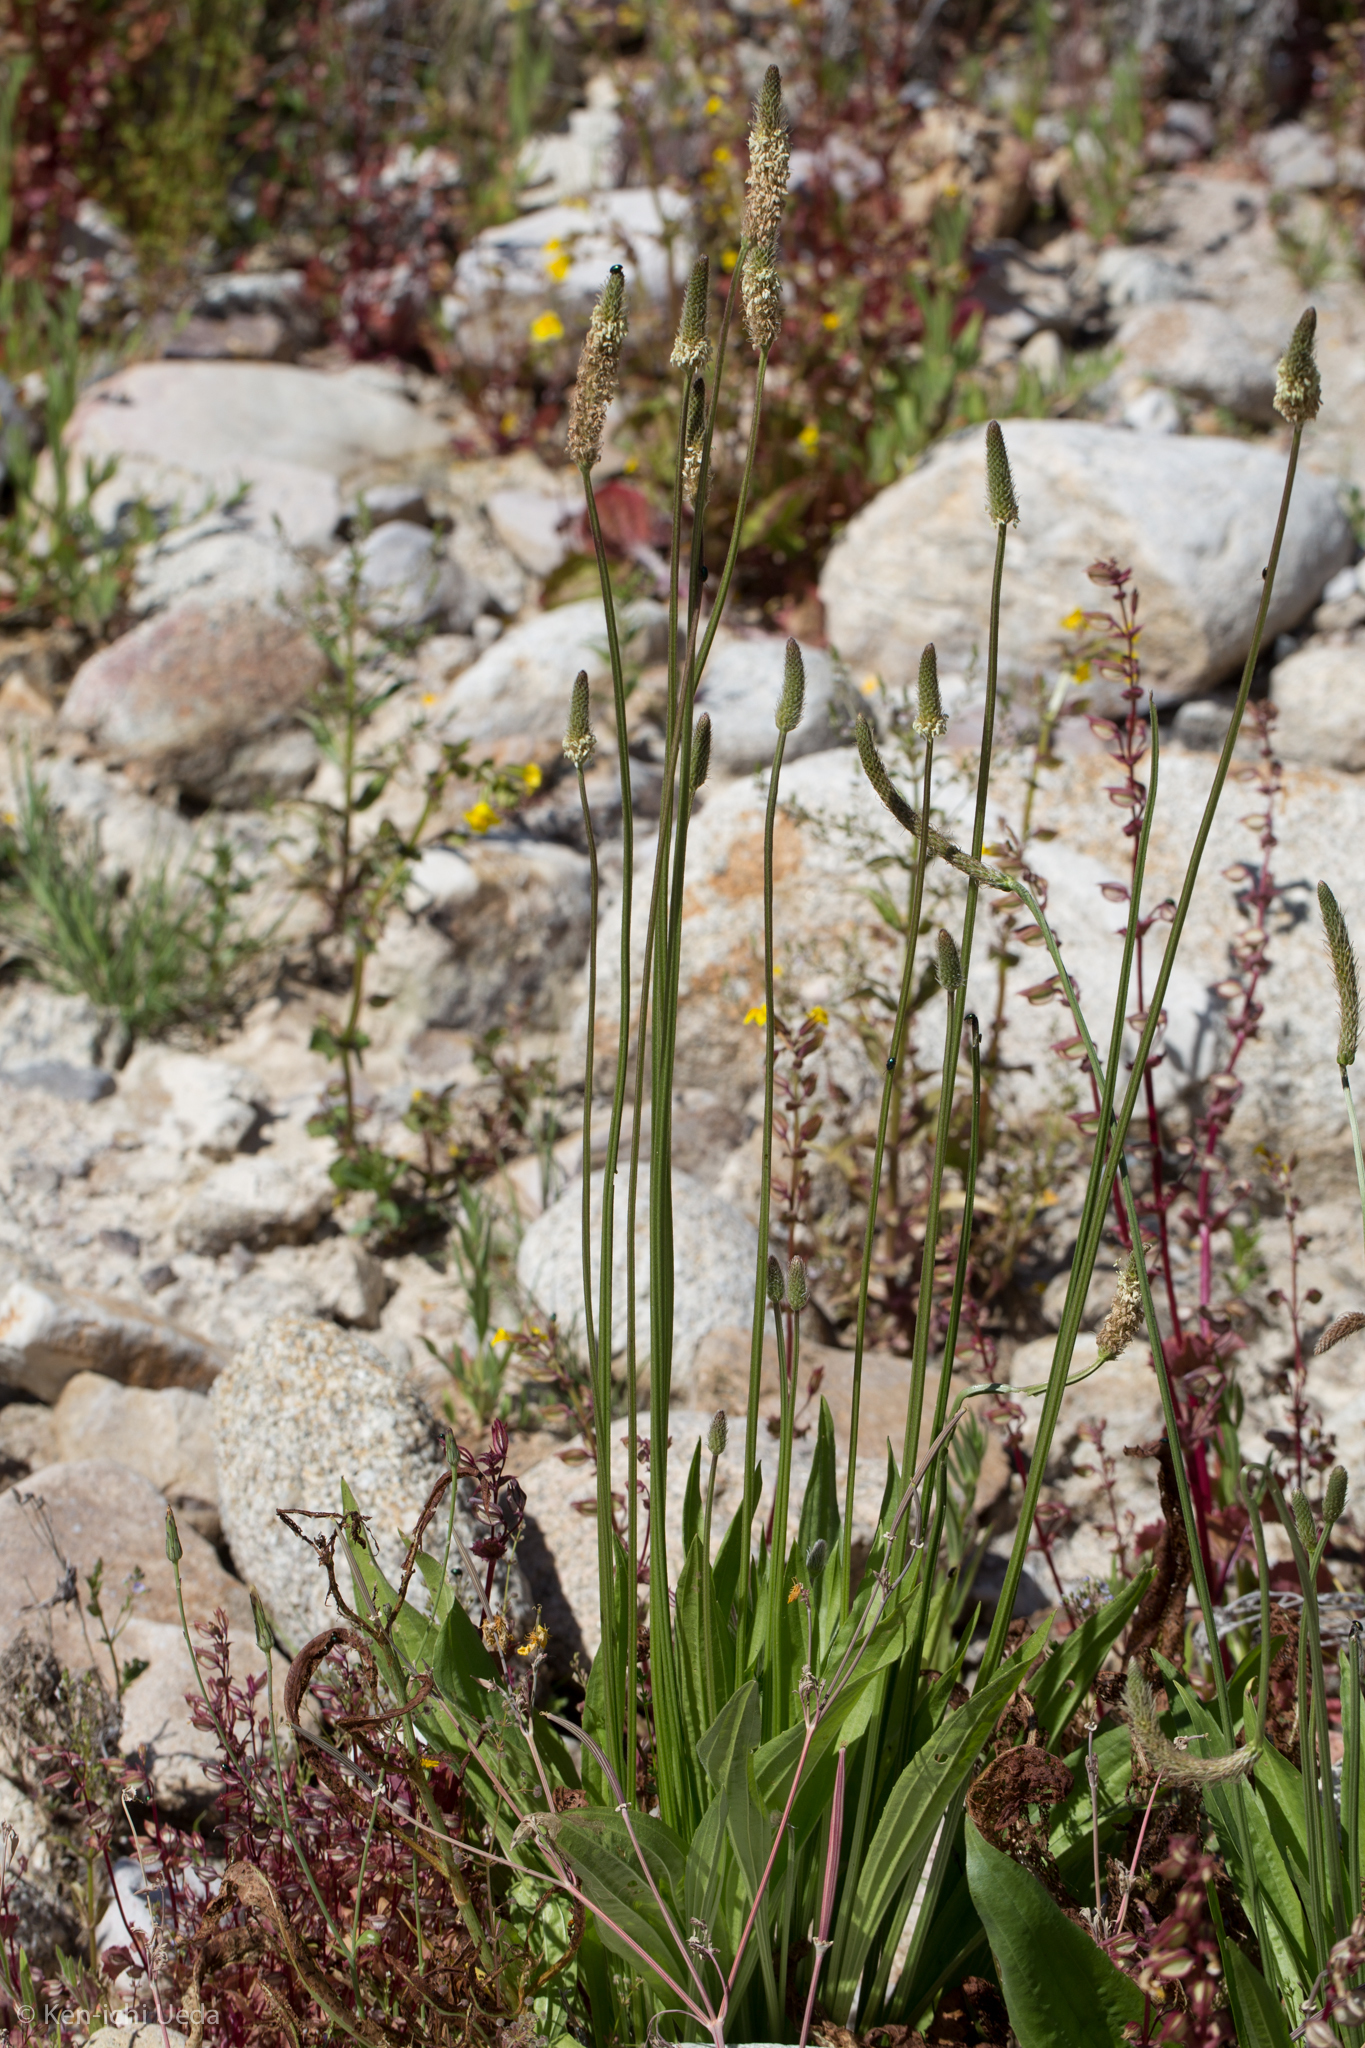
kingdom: Plantae
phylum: Tracheophyta
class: Magnoliopsida
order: Lamiales
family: Plantaginaceae
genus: Plantago
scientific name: Plantago lanceolata
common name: Ribwort plantain
